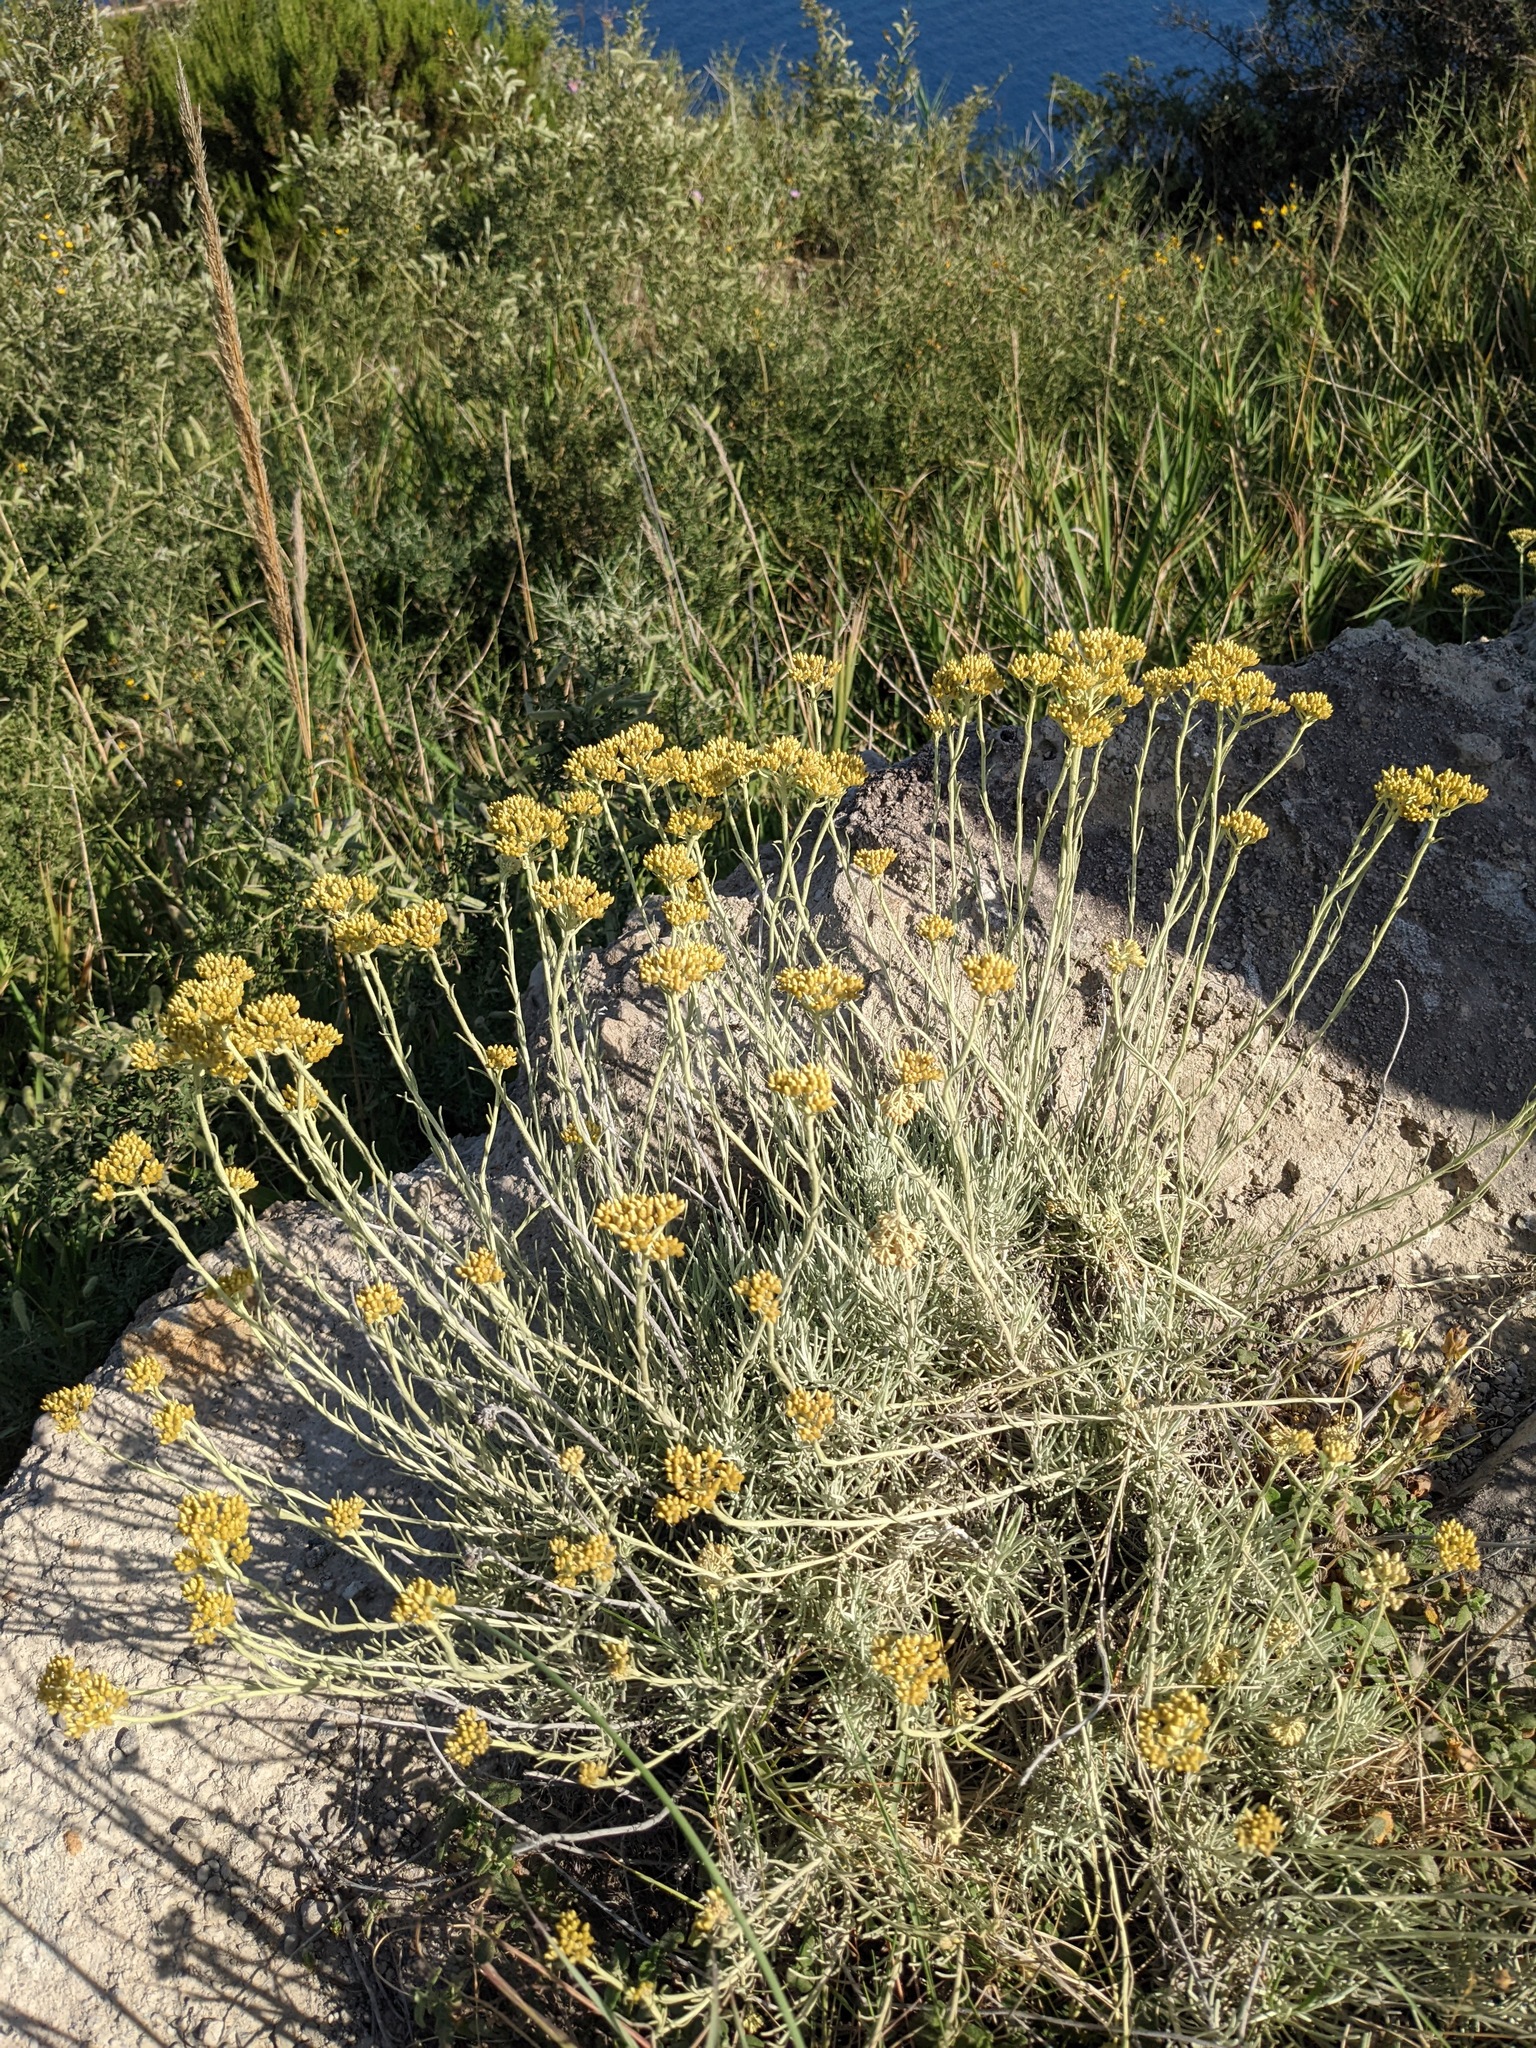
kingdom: Plantae
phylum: Tracheophyta
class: Magnoliopsida
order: Asterales
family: Asteraceae
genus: Helichrysum
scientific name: Helichrysum italicum
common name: Curryplant
